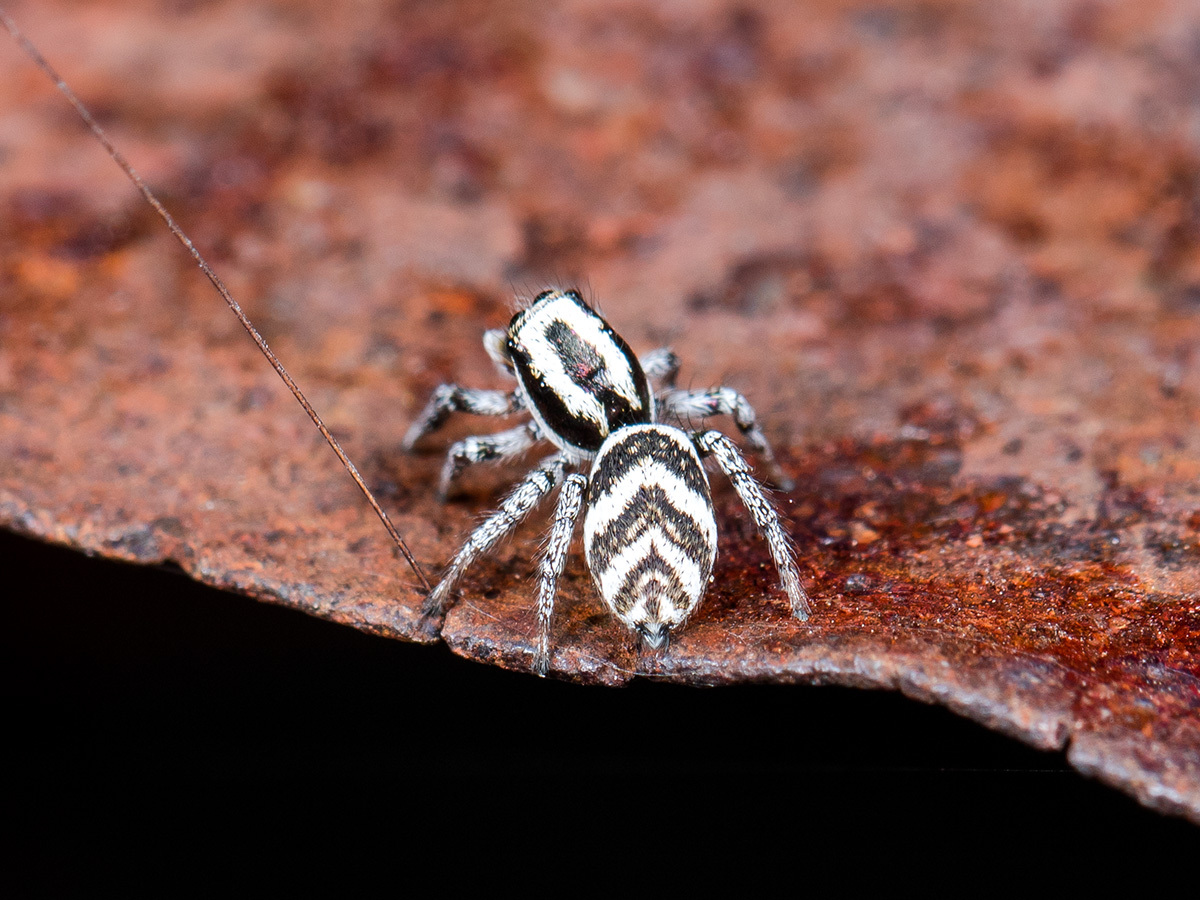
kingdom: Animalia
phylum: Arthropoda
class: Arachnida
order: Araneae
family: Salticidae
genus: Salticus
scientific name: Salticus tricinctus
